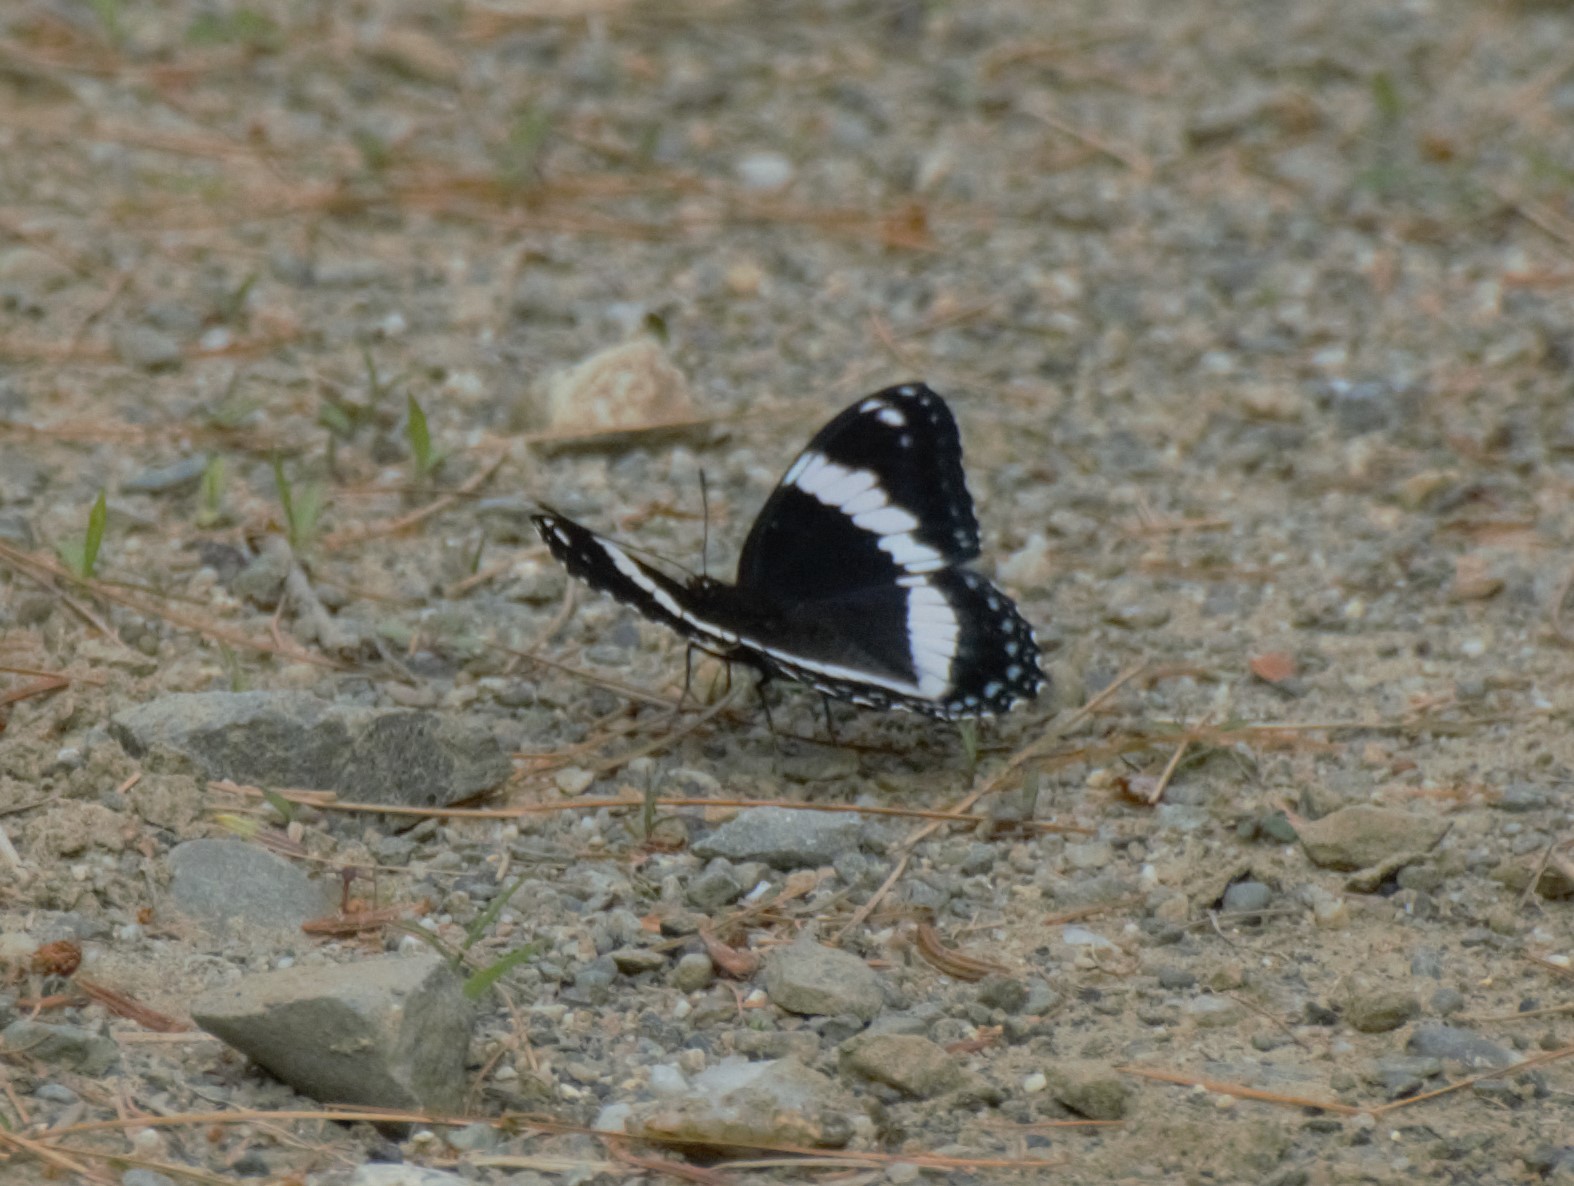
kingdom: Animalia
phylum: Arthropoda
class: Insecta
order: Lepidoptera
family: Nymphalidae
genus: Limenitis
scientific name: Limenitis arthemis
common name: Red-spotted admiral
